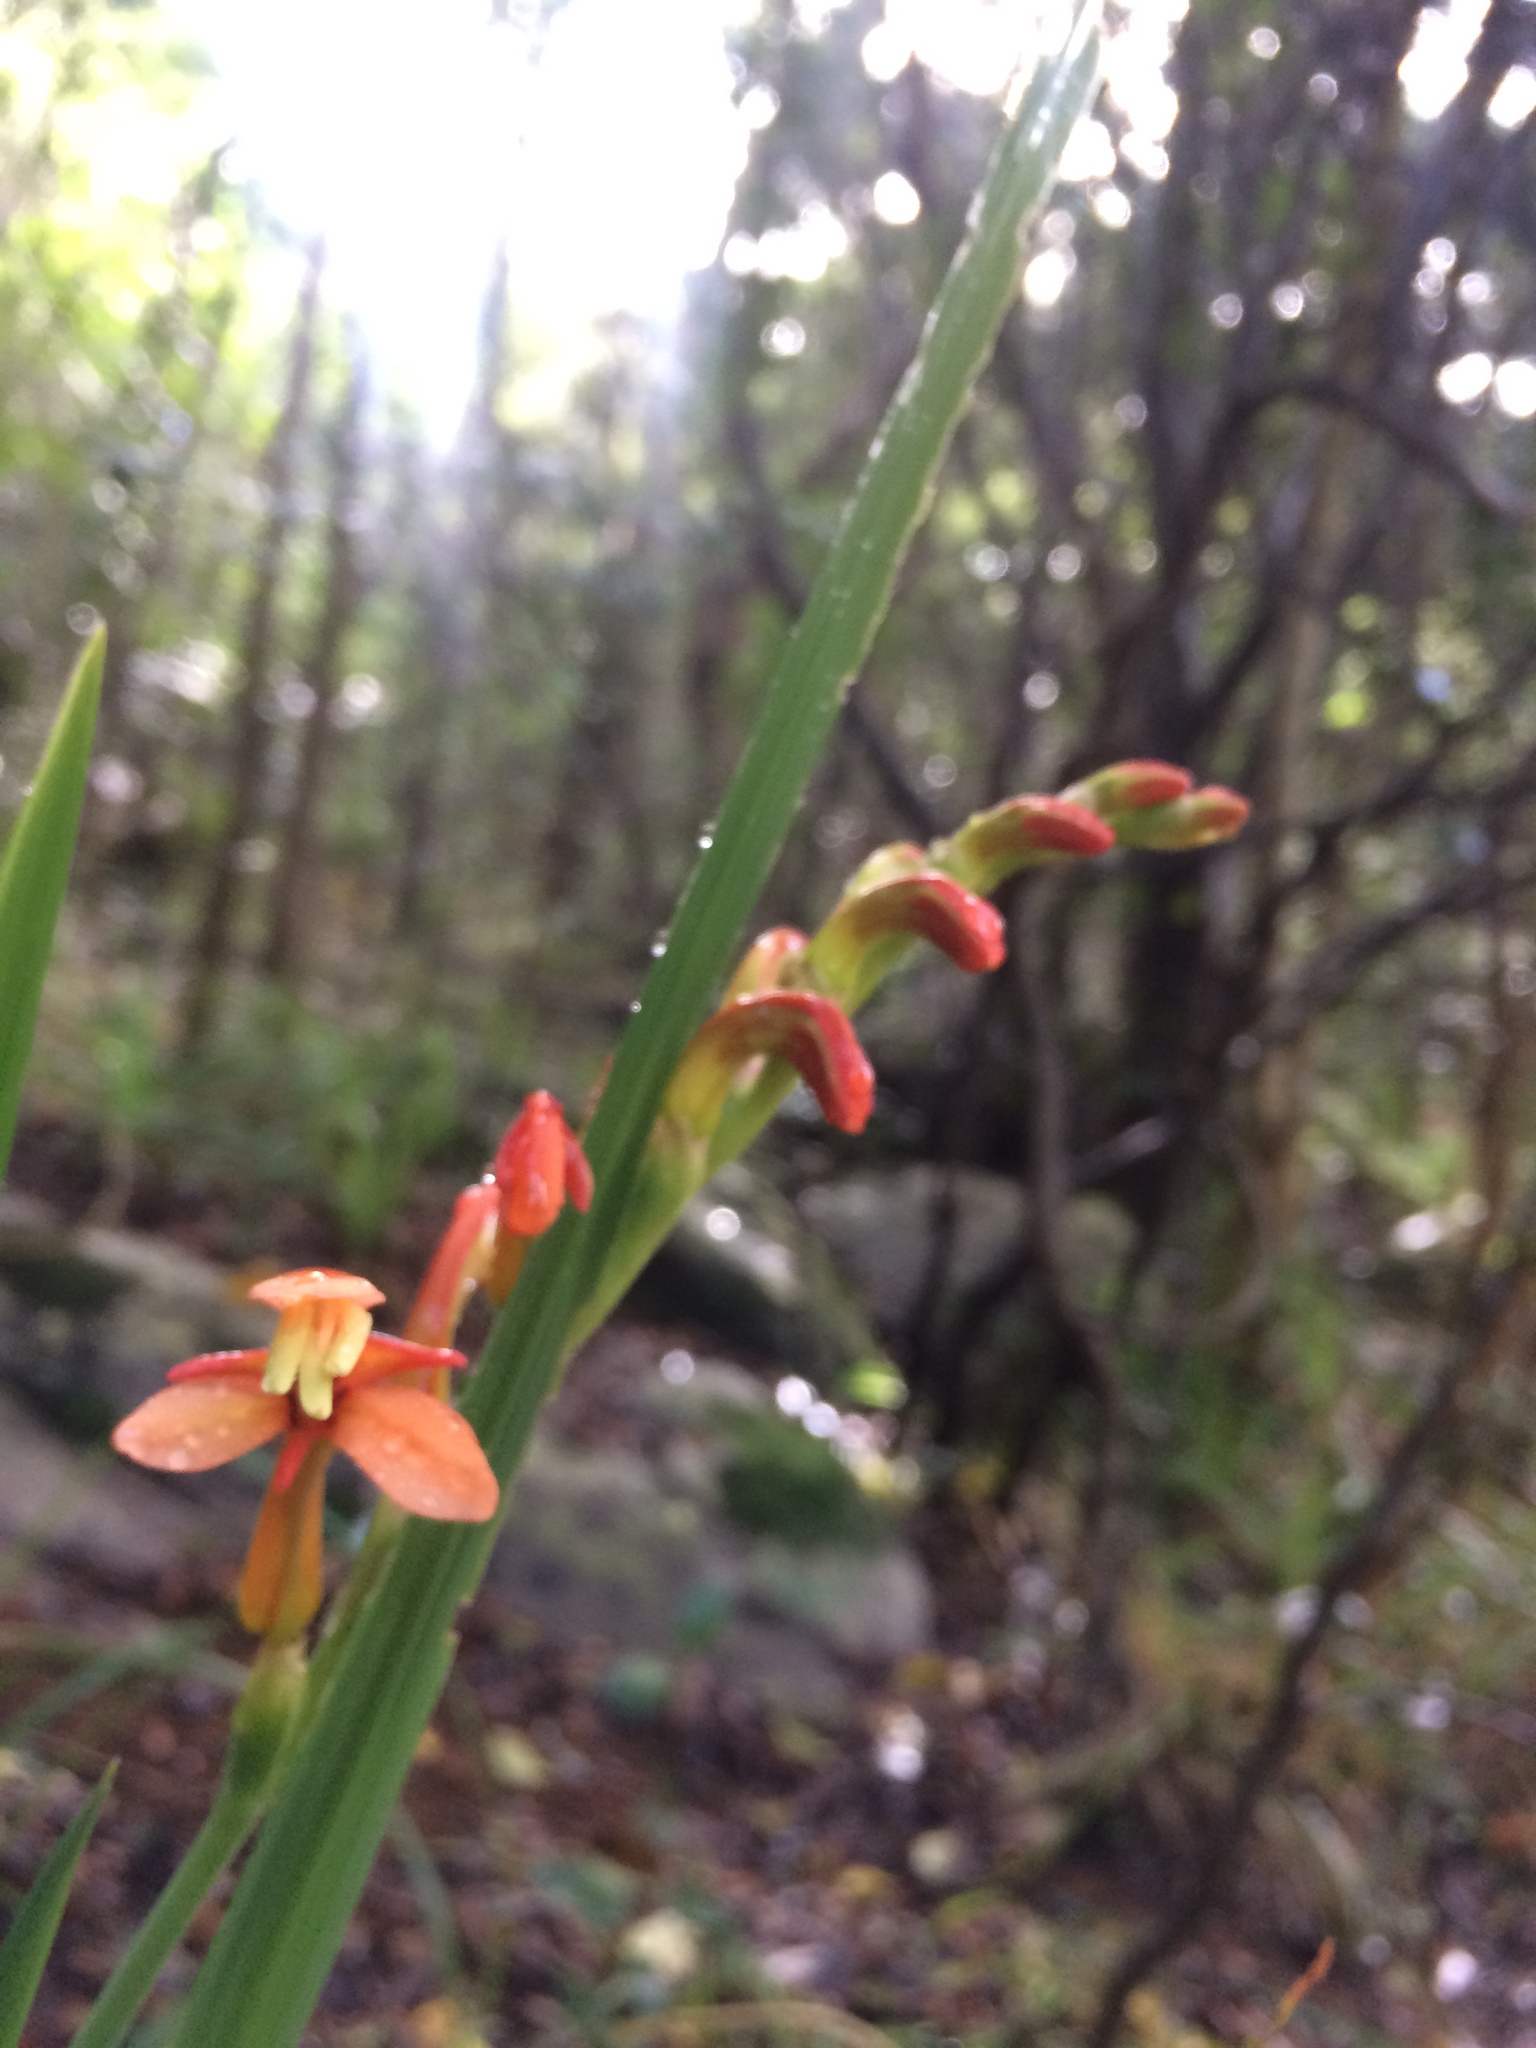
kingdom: Plantae
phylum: Tracheophyta
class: Liliopsida
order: Asparagales
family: Iridaceae
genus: Chasmanthe
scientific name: Chasmanthe aethiopica
